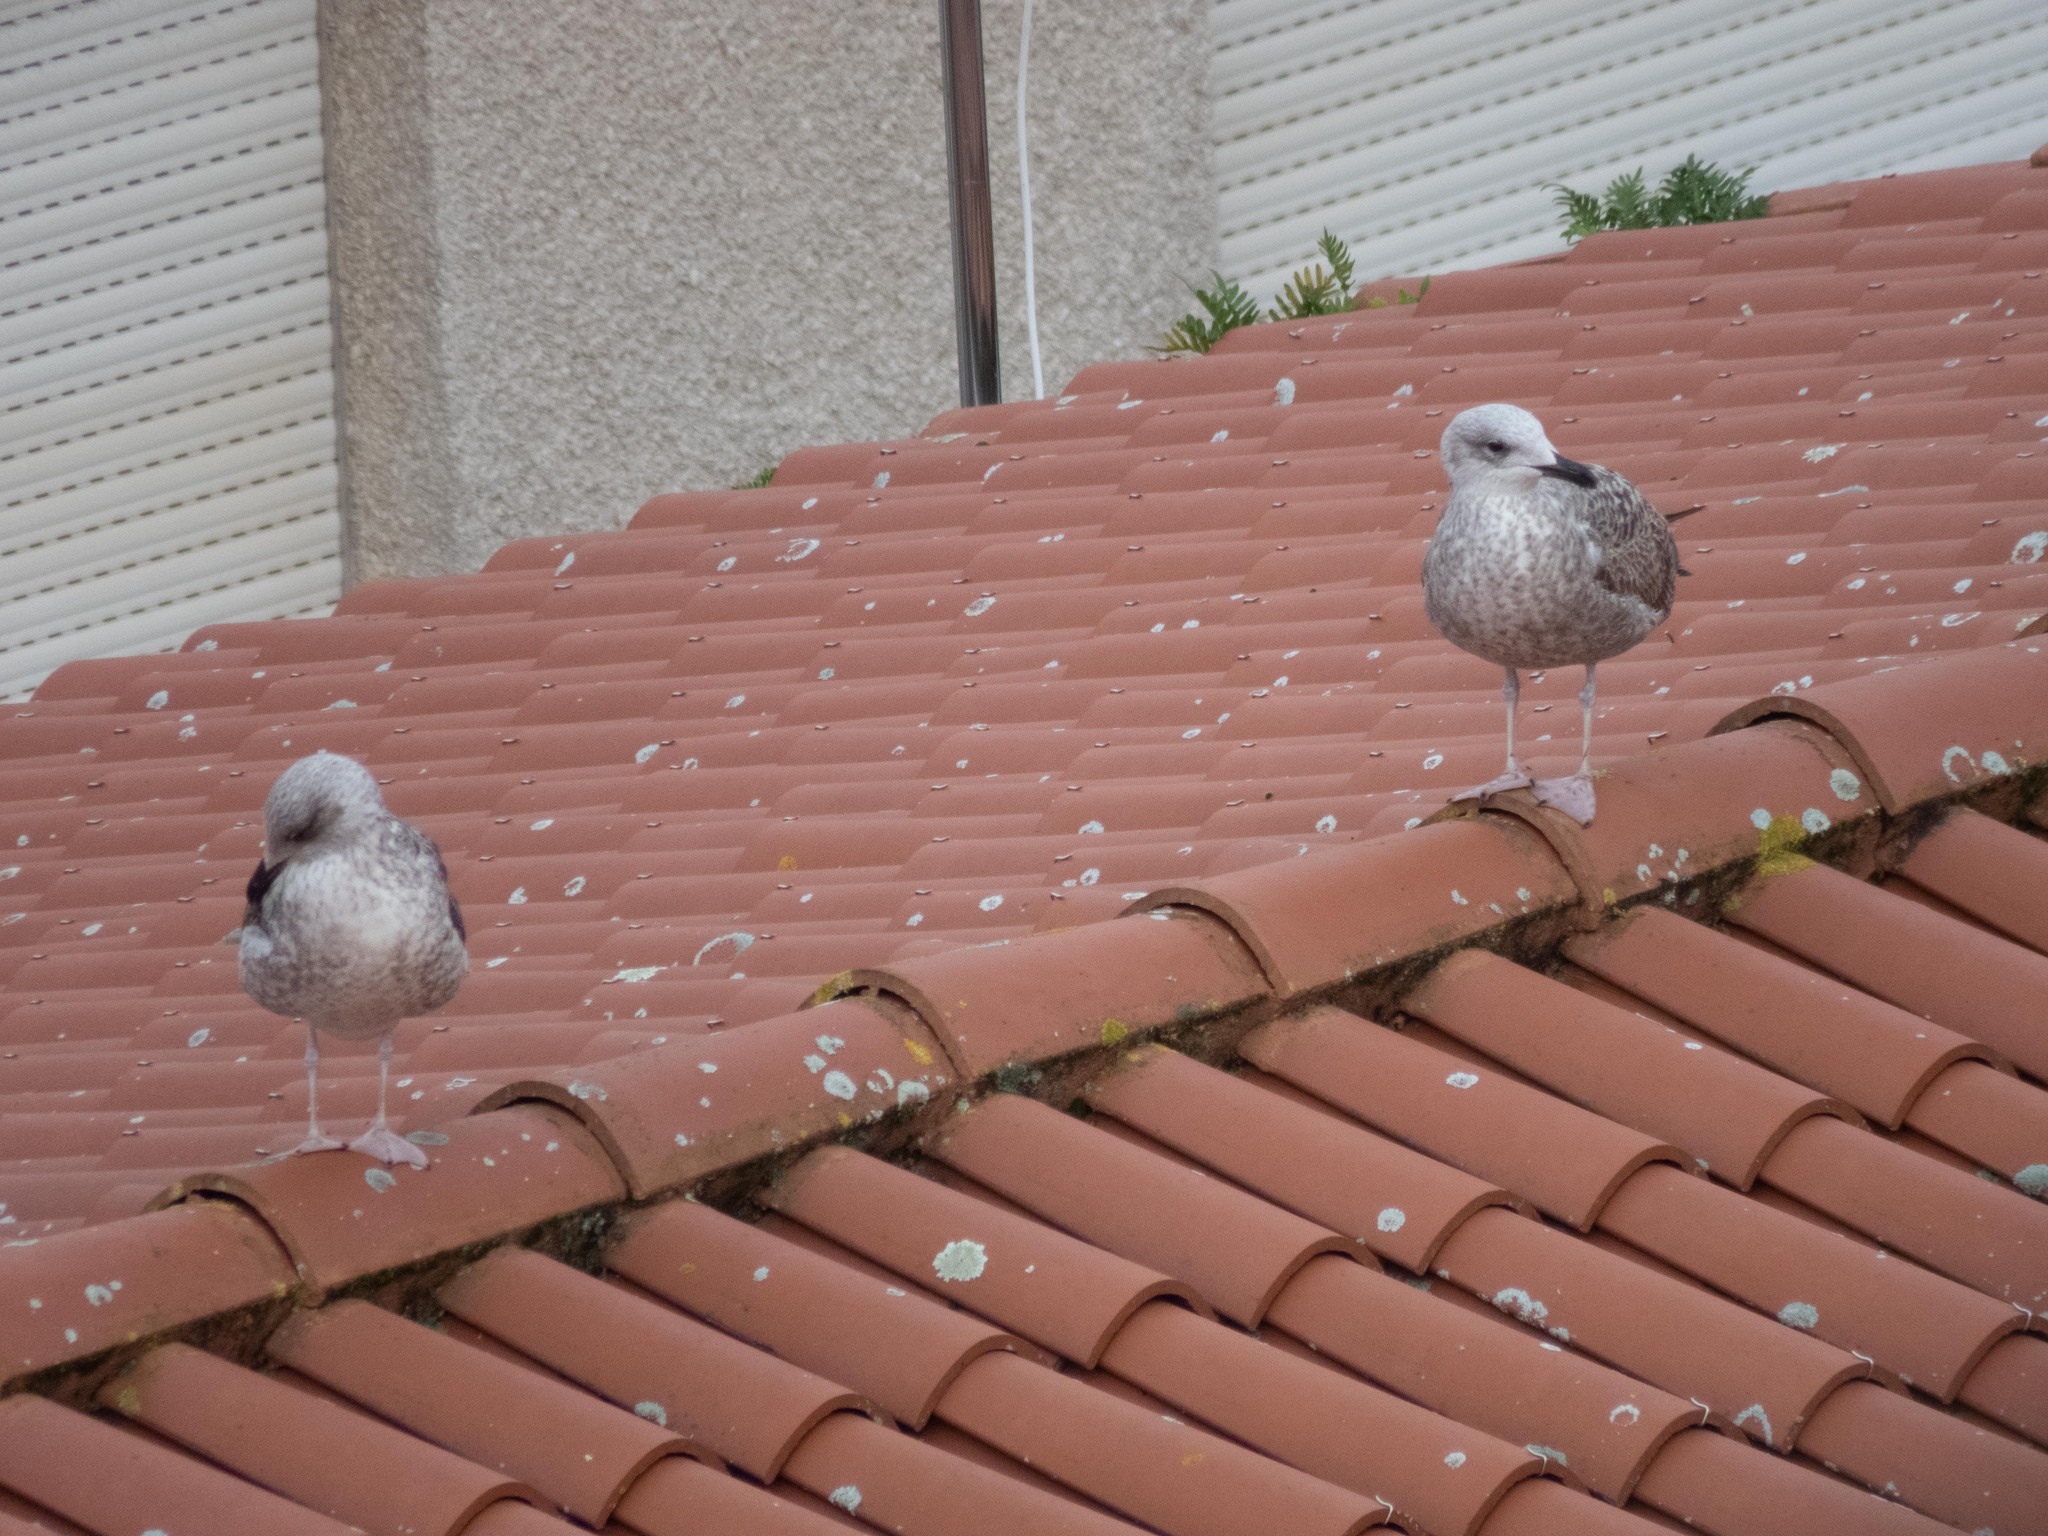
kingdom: Animalia
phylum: Chordata
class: Aves
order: Charadriiformes
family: Laridae
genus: Larus
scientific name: Larus michahellis
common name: Yellow-legged gull
